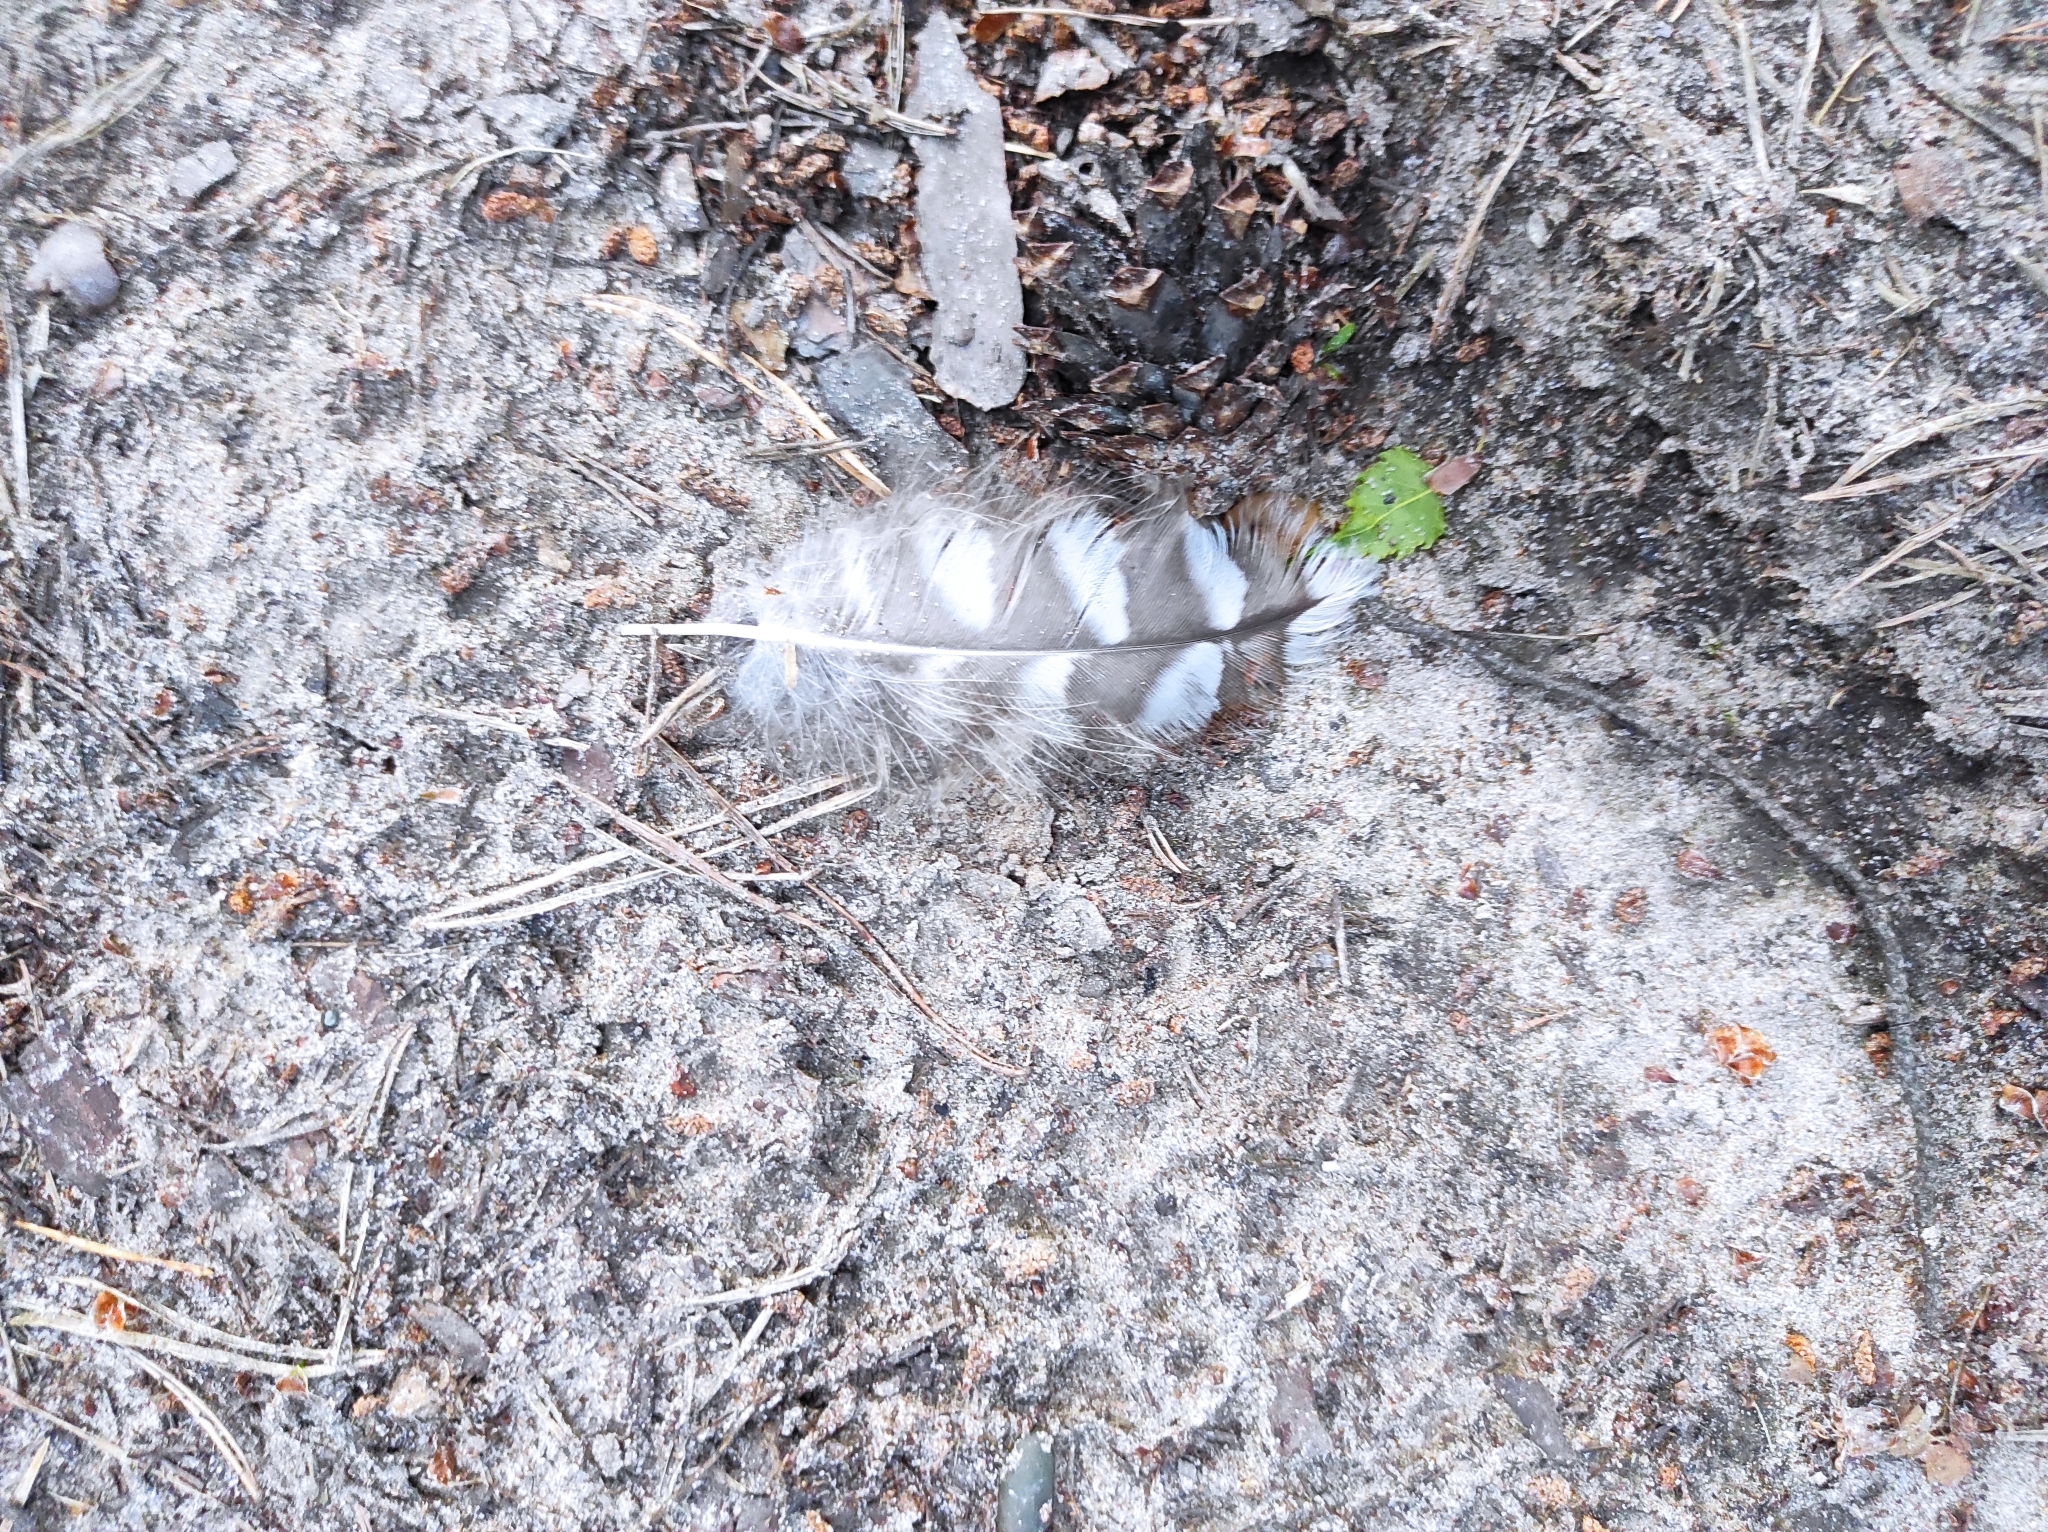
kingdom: Animalia
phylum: Chordata
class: Aves
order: Strigiformes
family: Strigidae
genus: Strix
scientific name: Strix uralensis
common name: Ural owl
